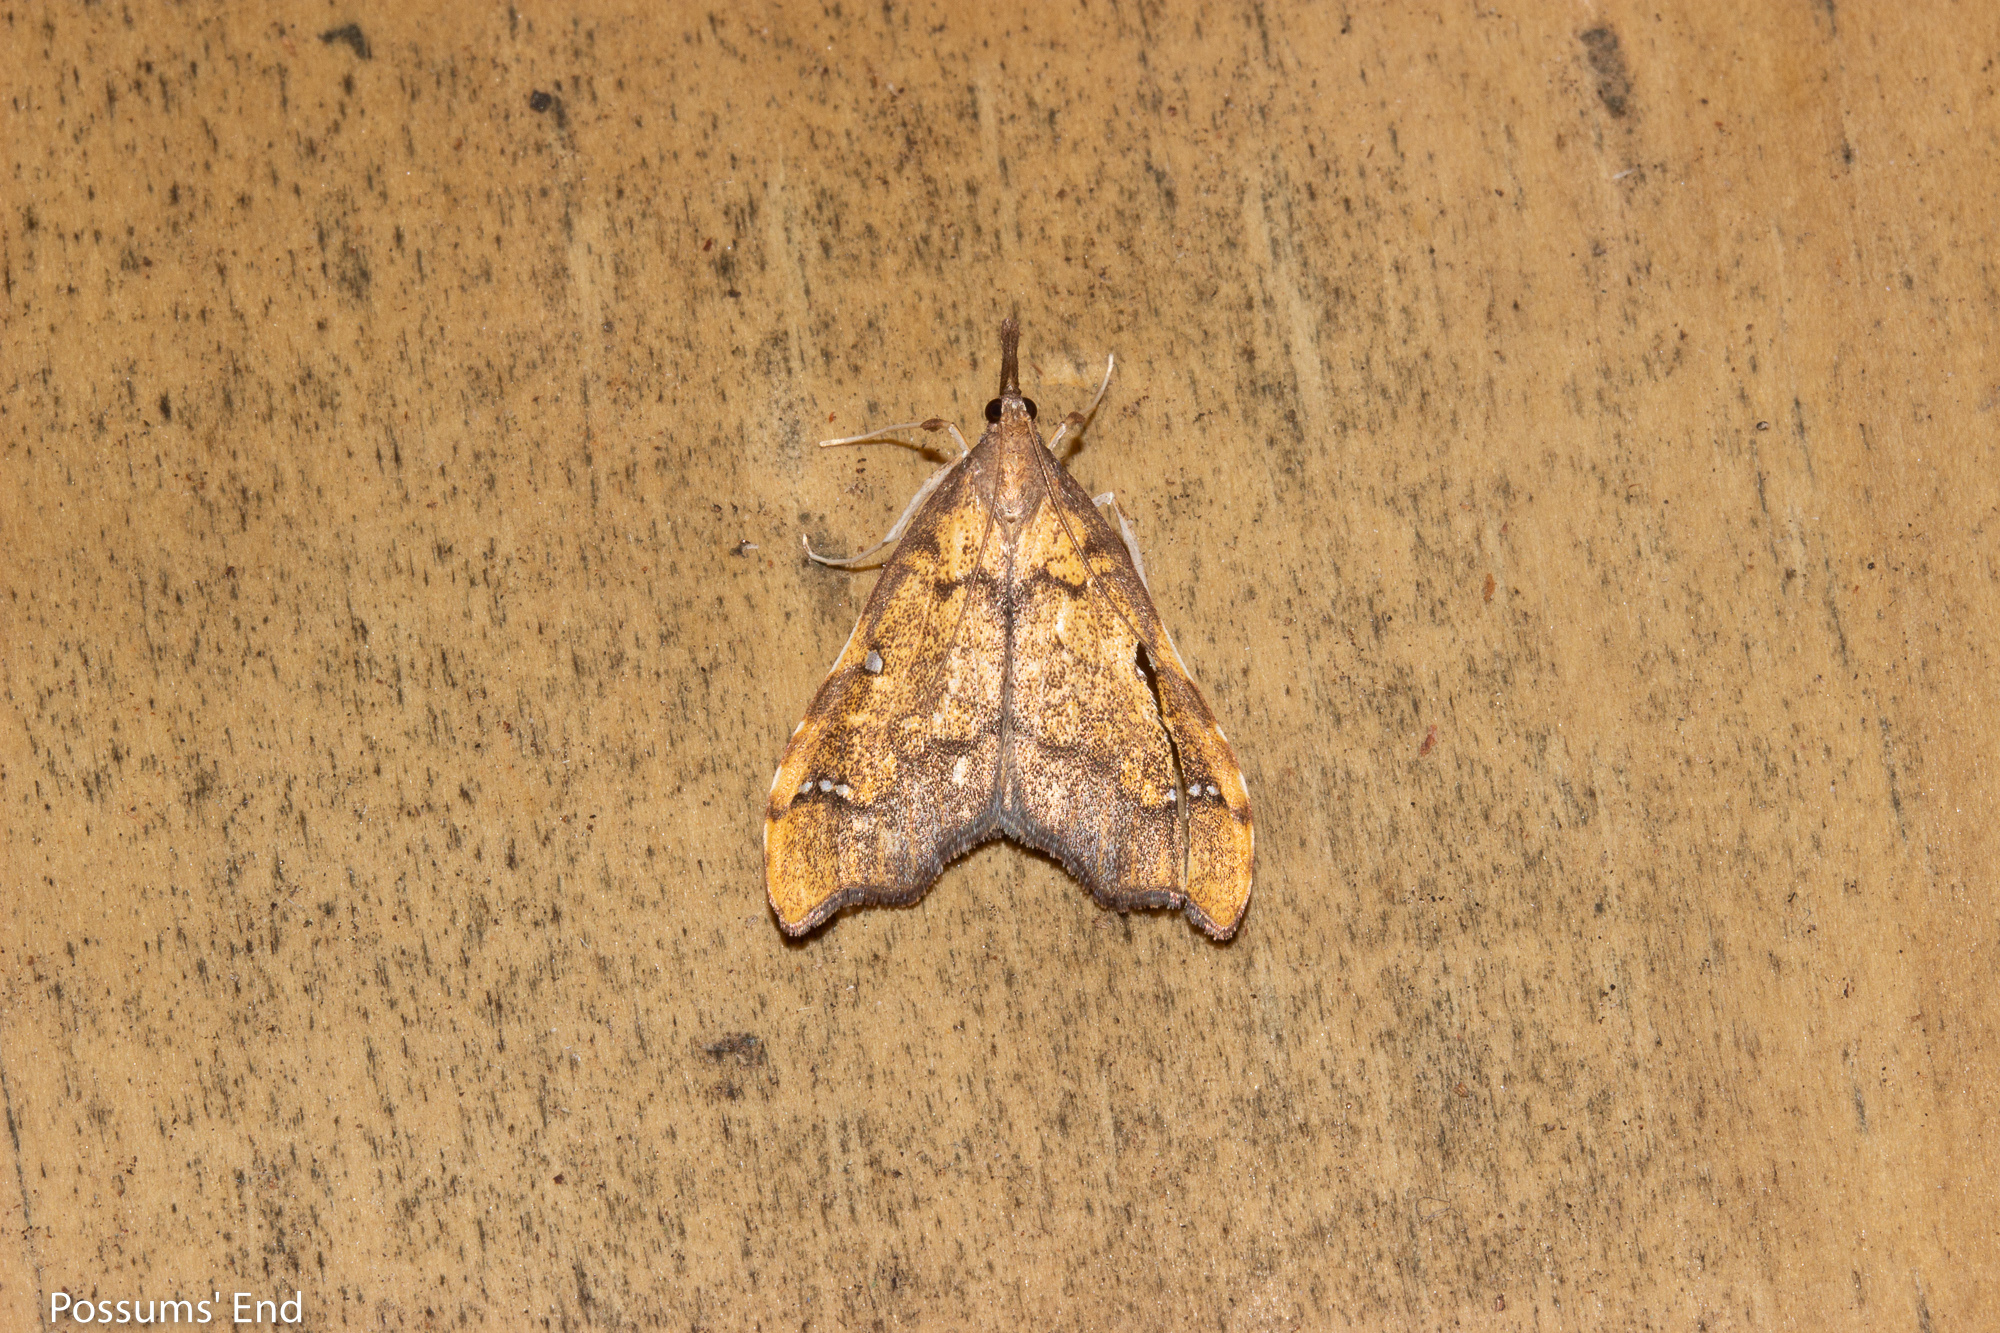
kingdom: Animalia
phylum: Arthropoda
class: Insecta
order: Lepidoptera
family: Crambidae
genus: Deana
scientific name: Deana hybreasalis
